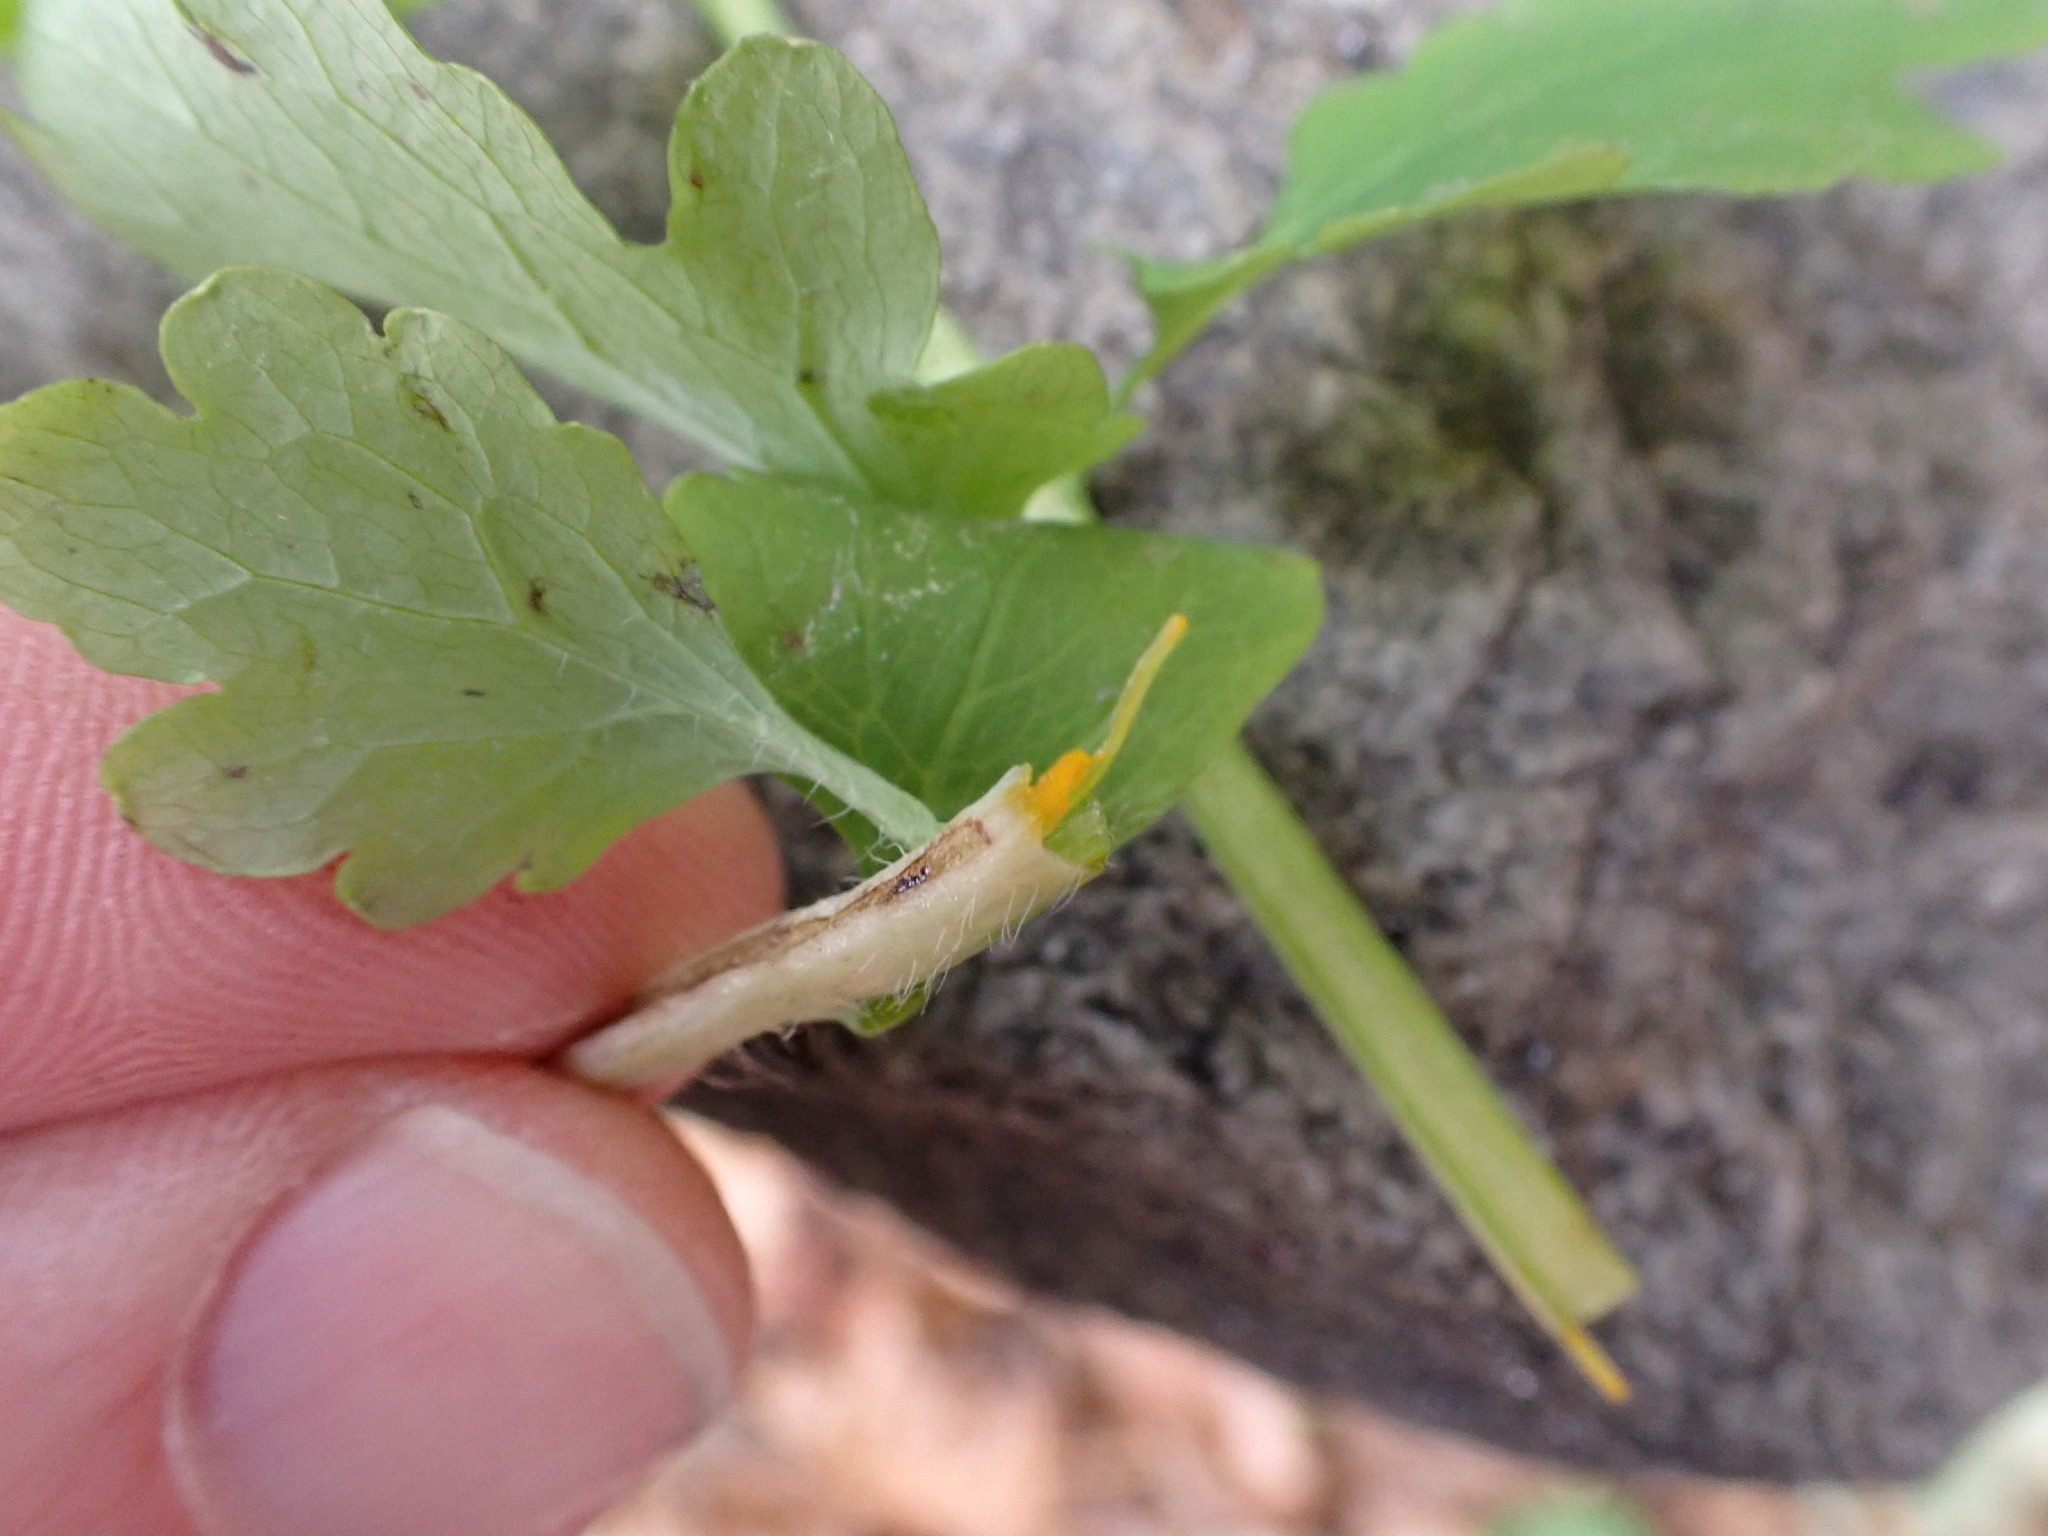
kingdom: Plantae
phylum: Tracheophyta
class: Magnoliopsida
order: Ranunculales
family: Papaveraceae
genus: Chelidonium
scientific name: Chelidonium majus
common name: Greater celandine
